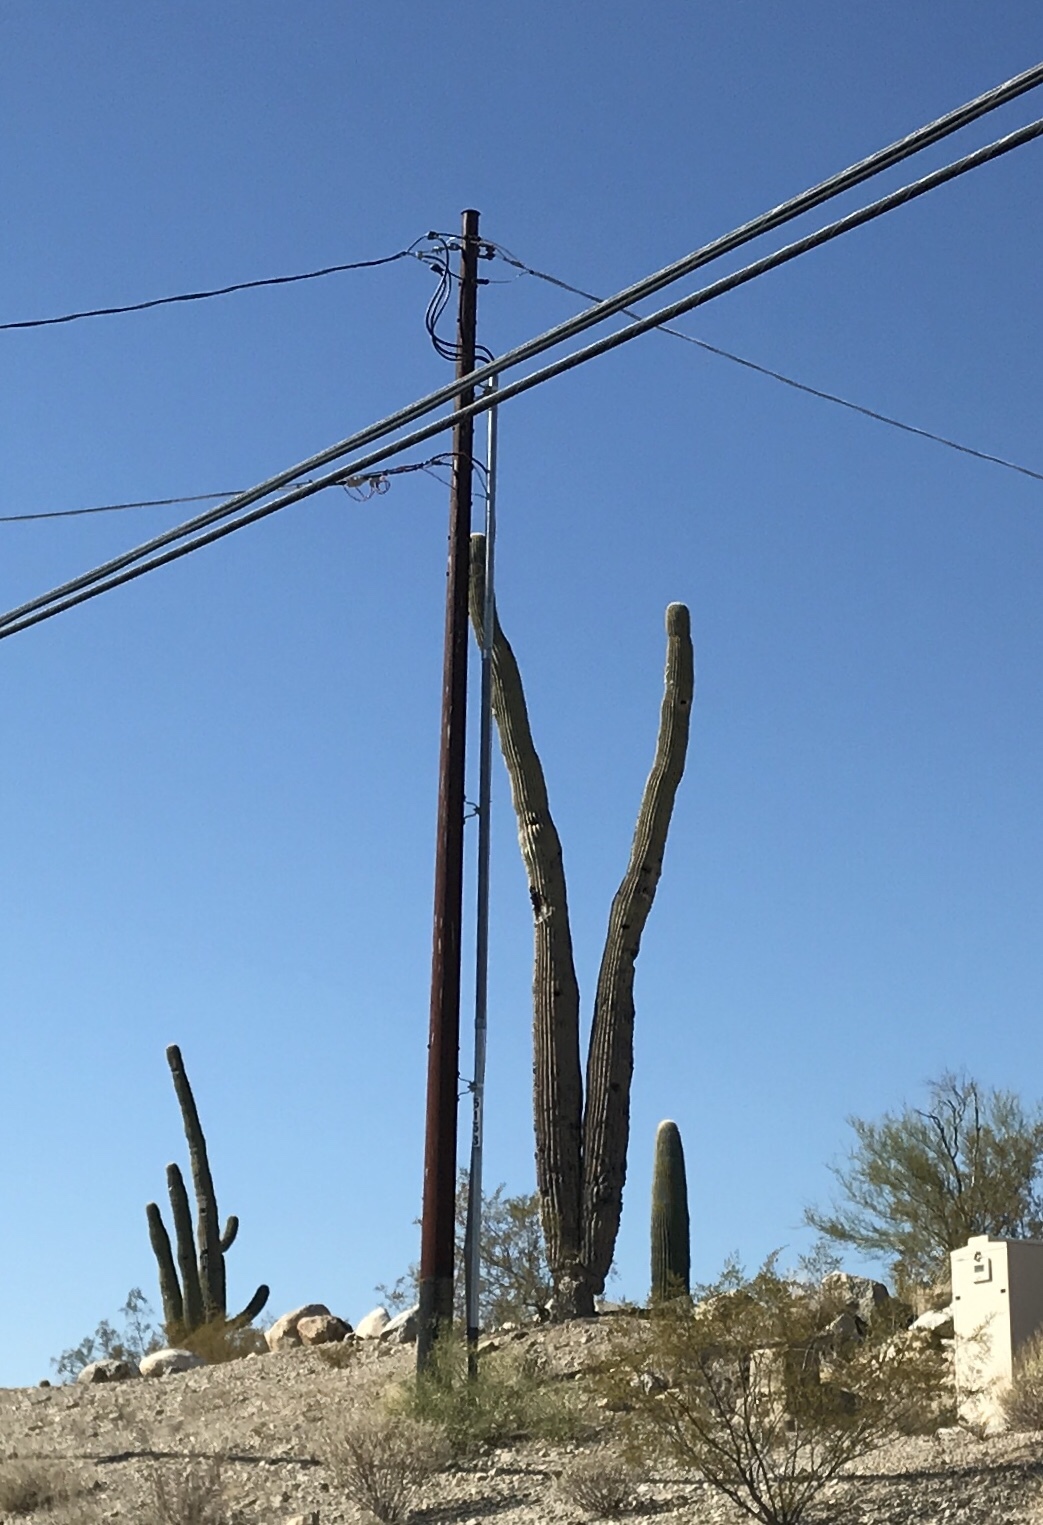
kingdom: Plantae
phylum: Tracheophyta
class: Magnoliopsida
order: Caryophyllales
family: Cactaceae
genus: Carnegiea
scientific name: Carnegiea gigantea
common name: Saguaro
